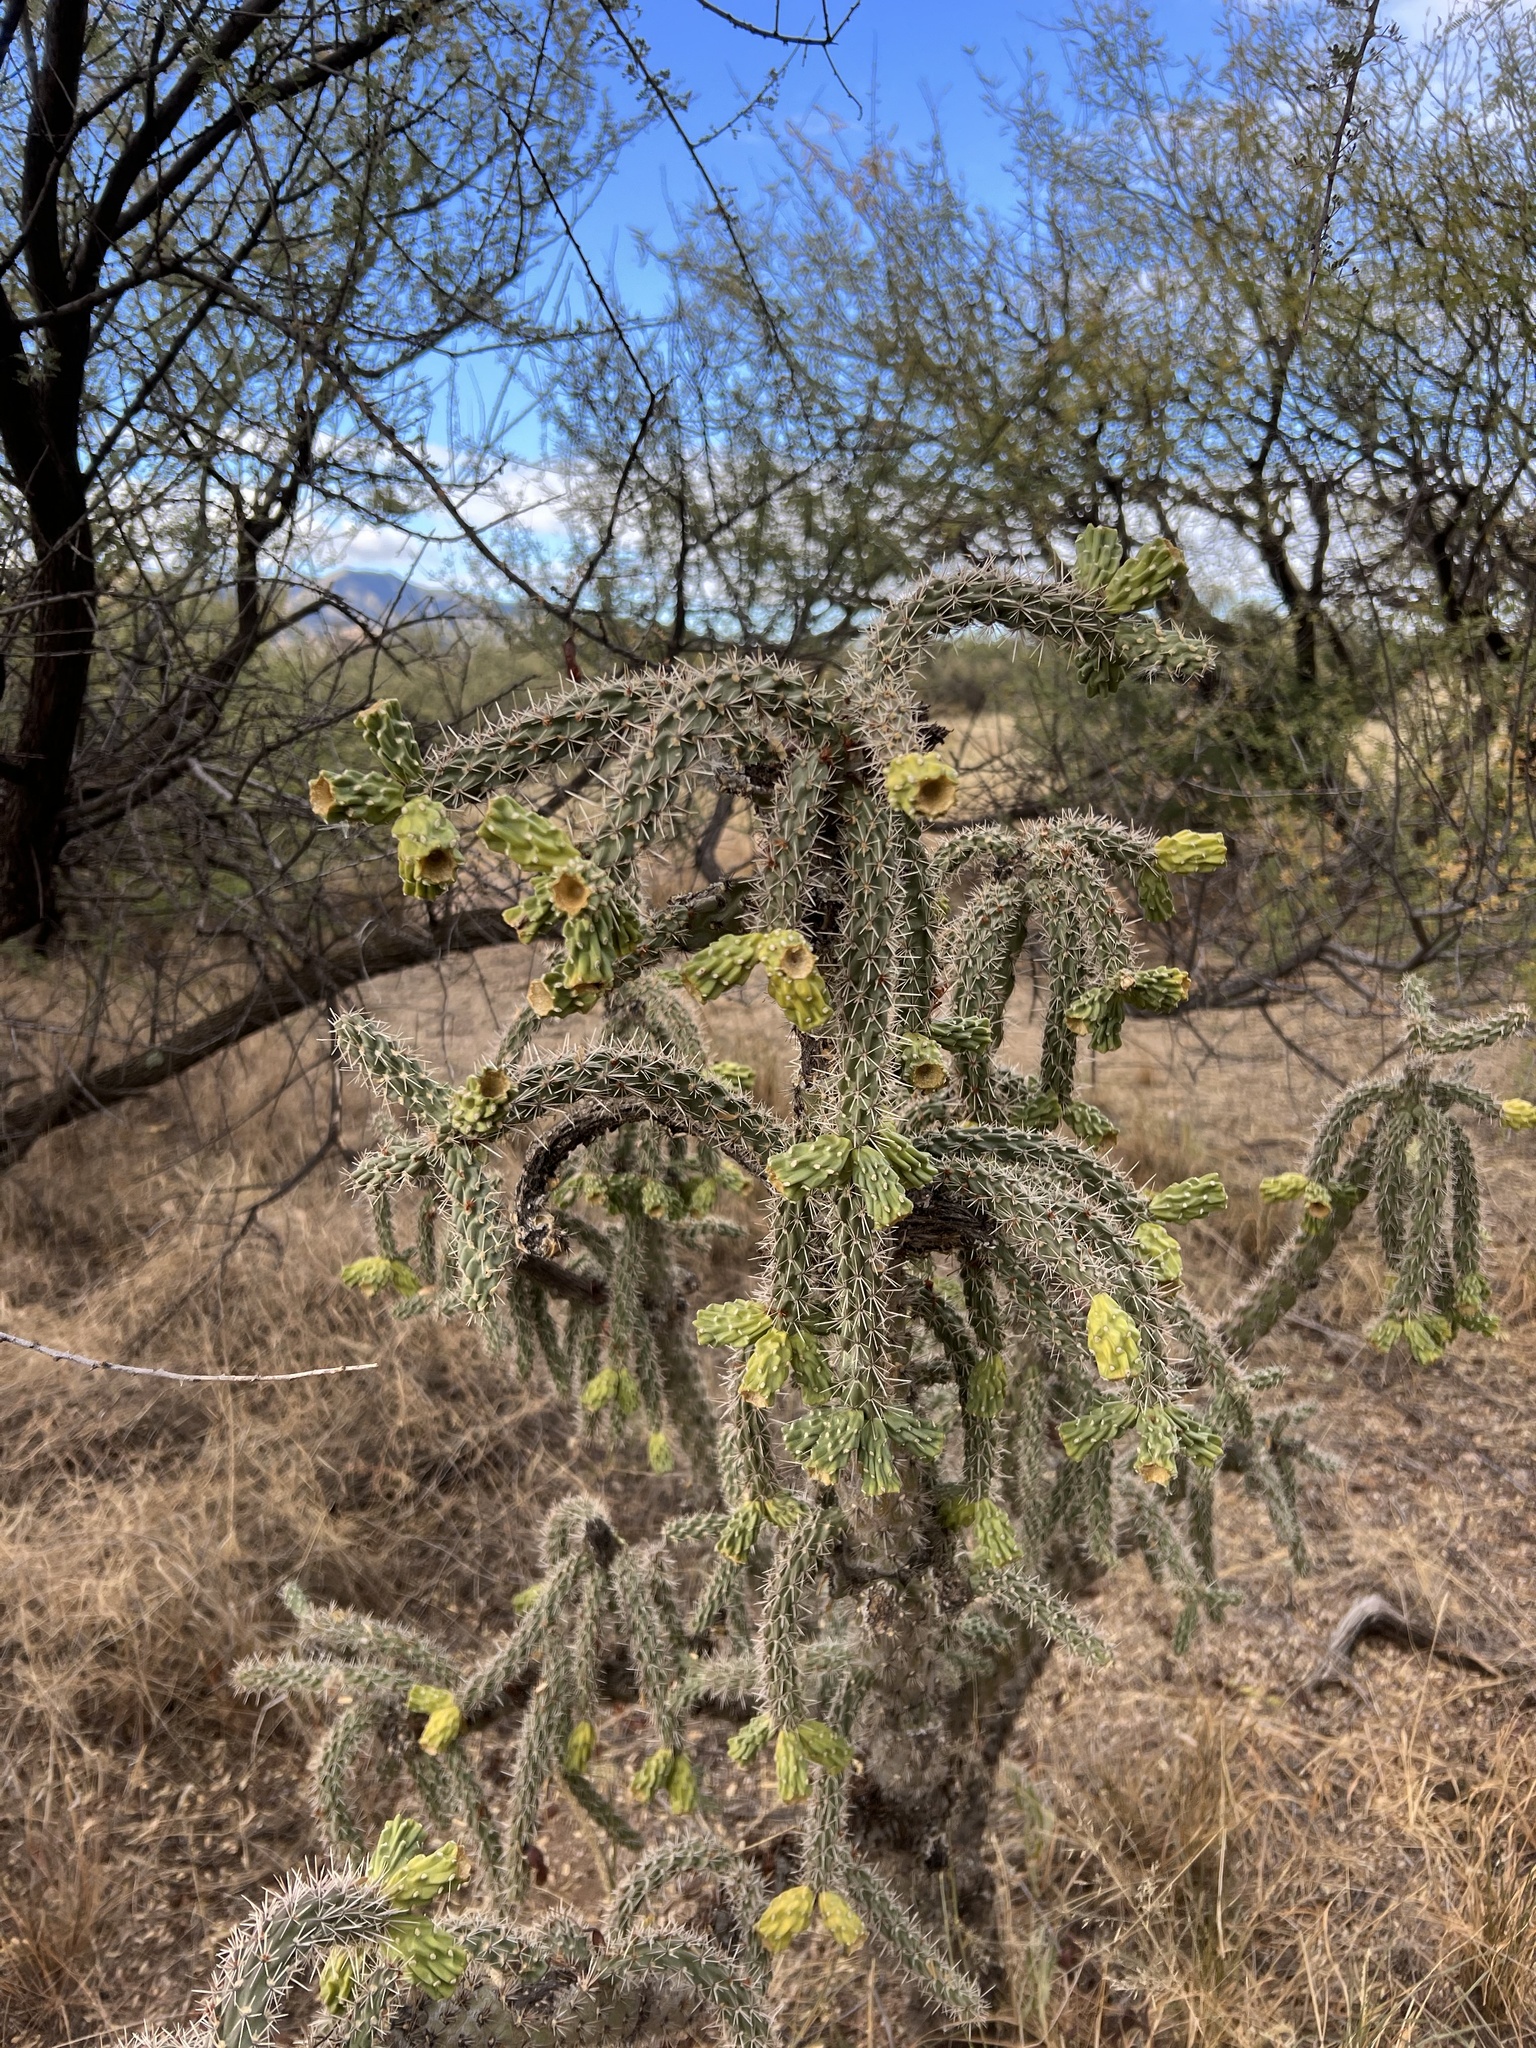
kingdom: Plantae
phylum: Tracheophyta
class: Magnoliopsida
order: Caryophyllales
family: Cactaceae
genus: Cylindropuntia
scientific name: Cylindropuntia imbricata
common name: Candelabrum cactus
